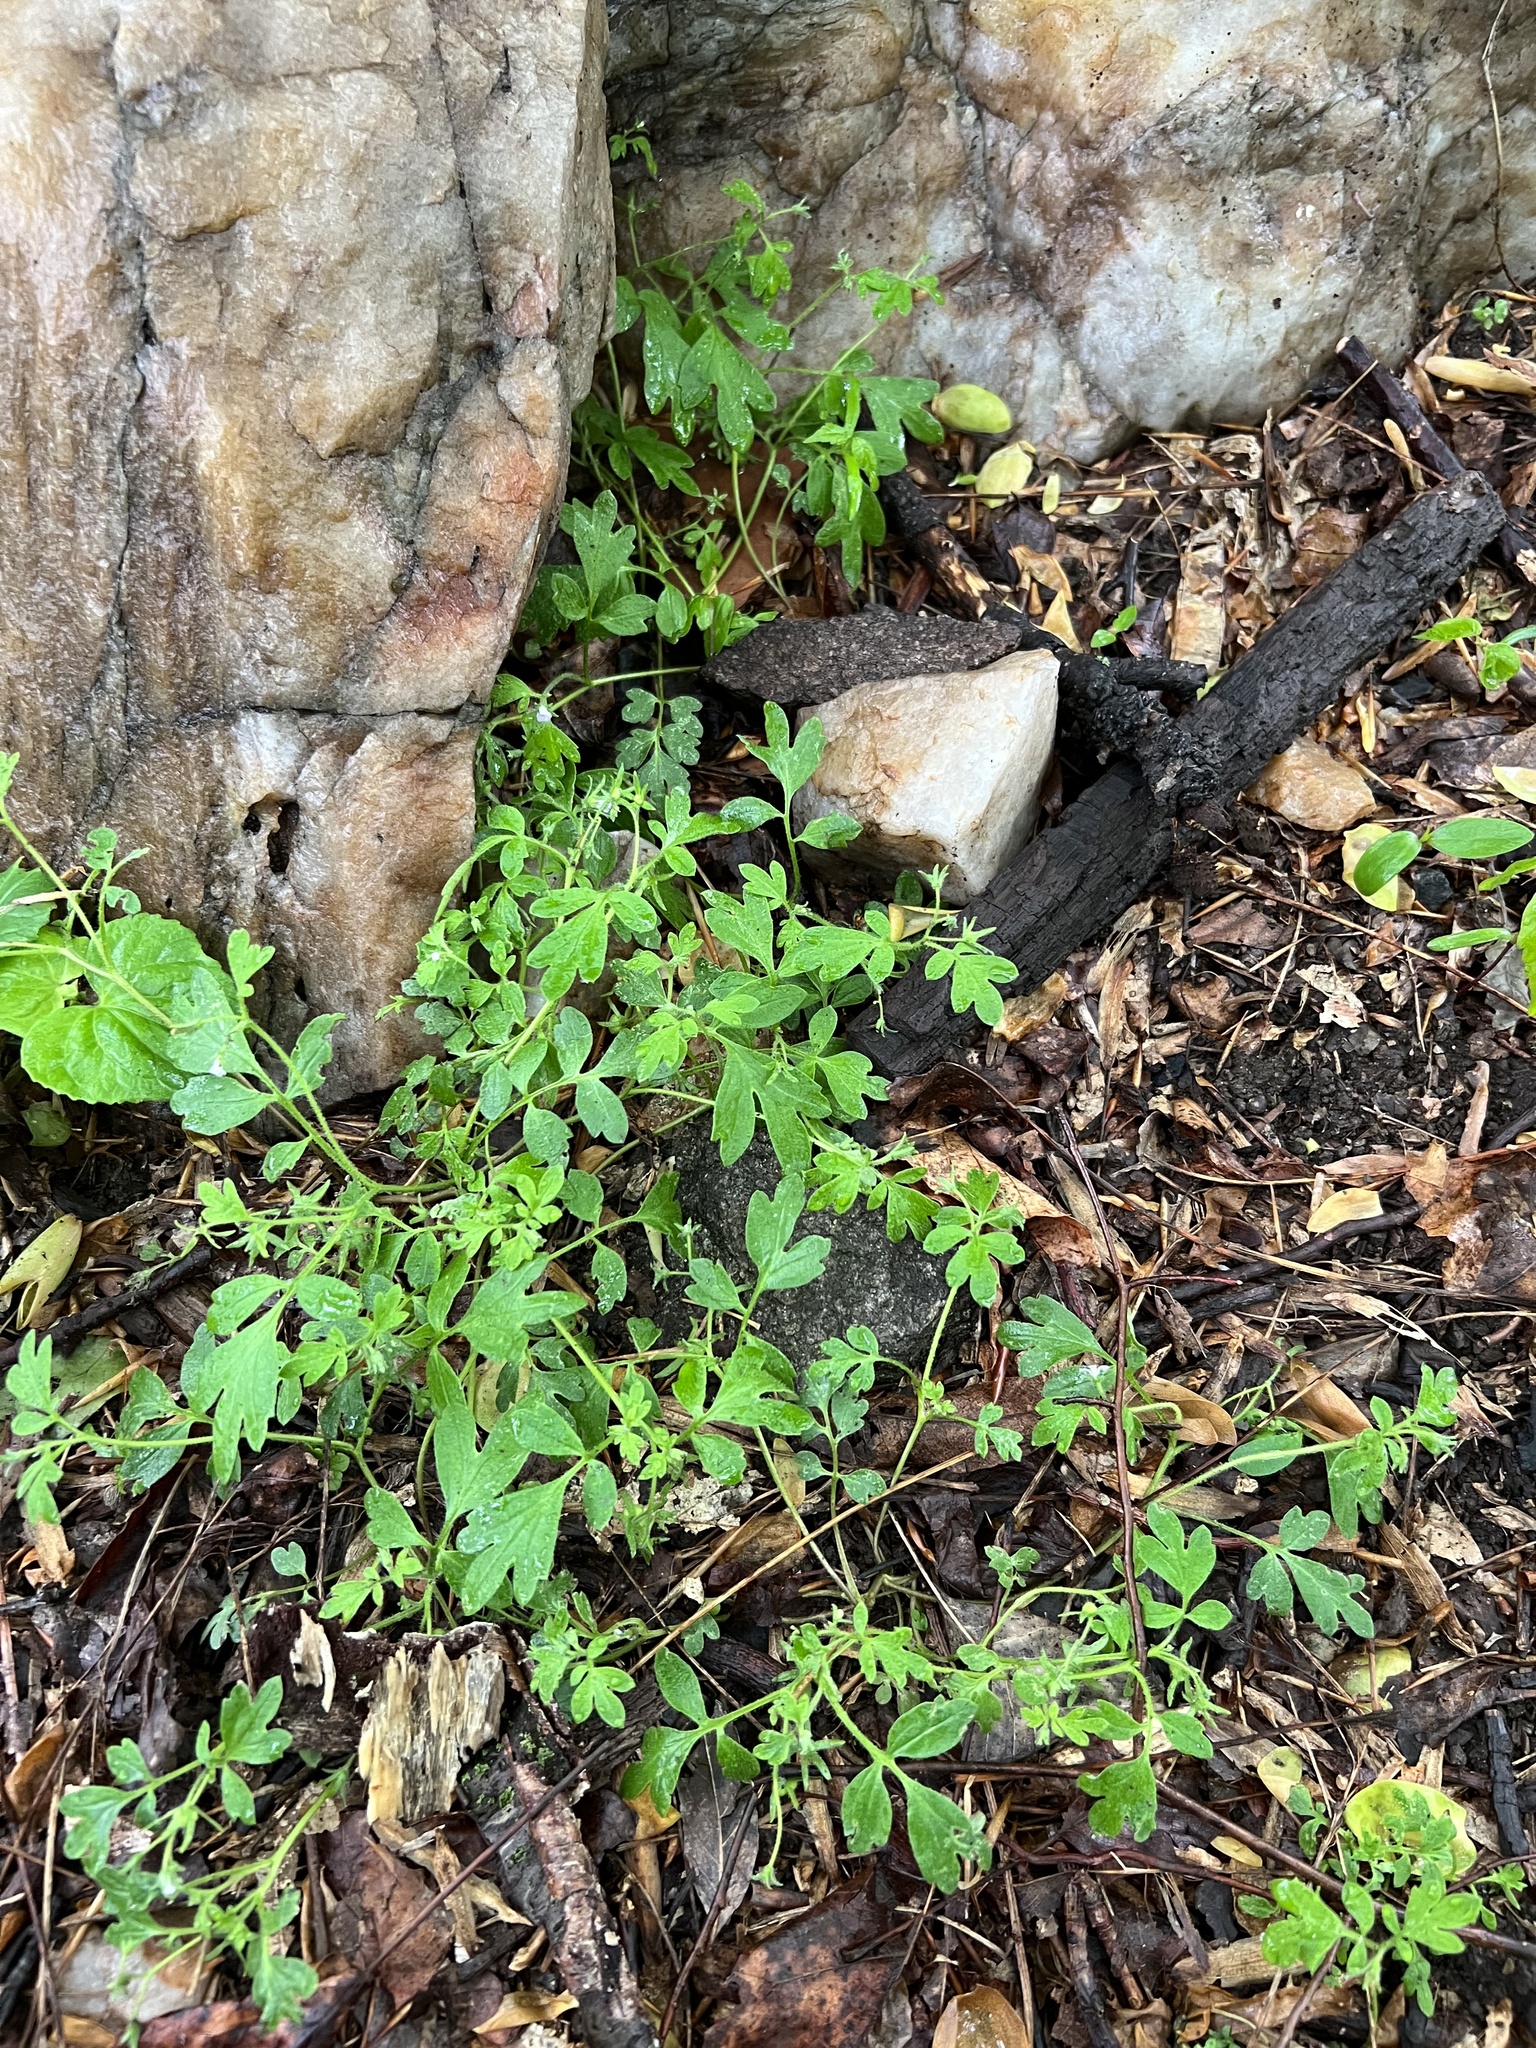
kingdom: Plantae
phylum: Tracheophyta
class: Magnoliopsida
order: Boraginales
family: Hydrophyllaceae
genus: Phacelia
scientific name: Phacelia covillei
